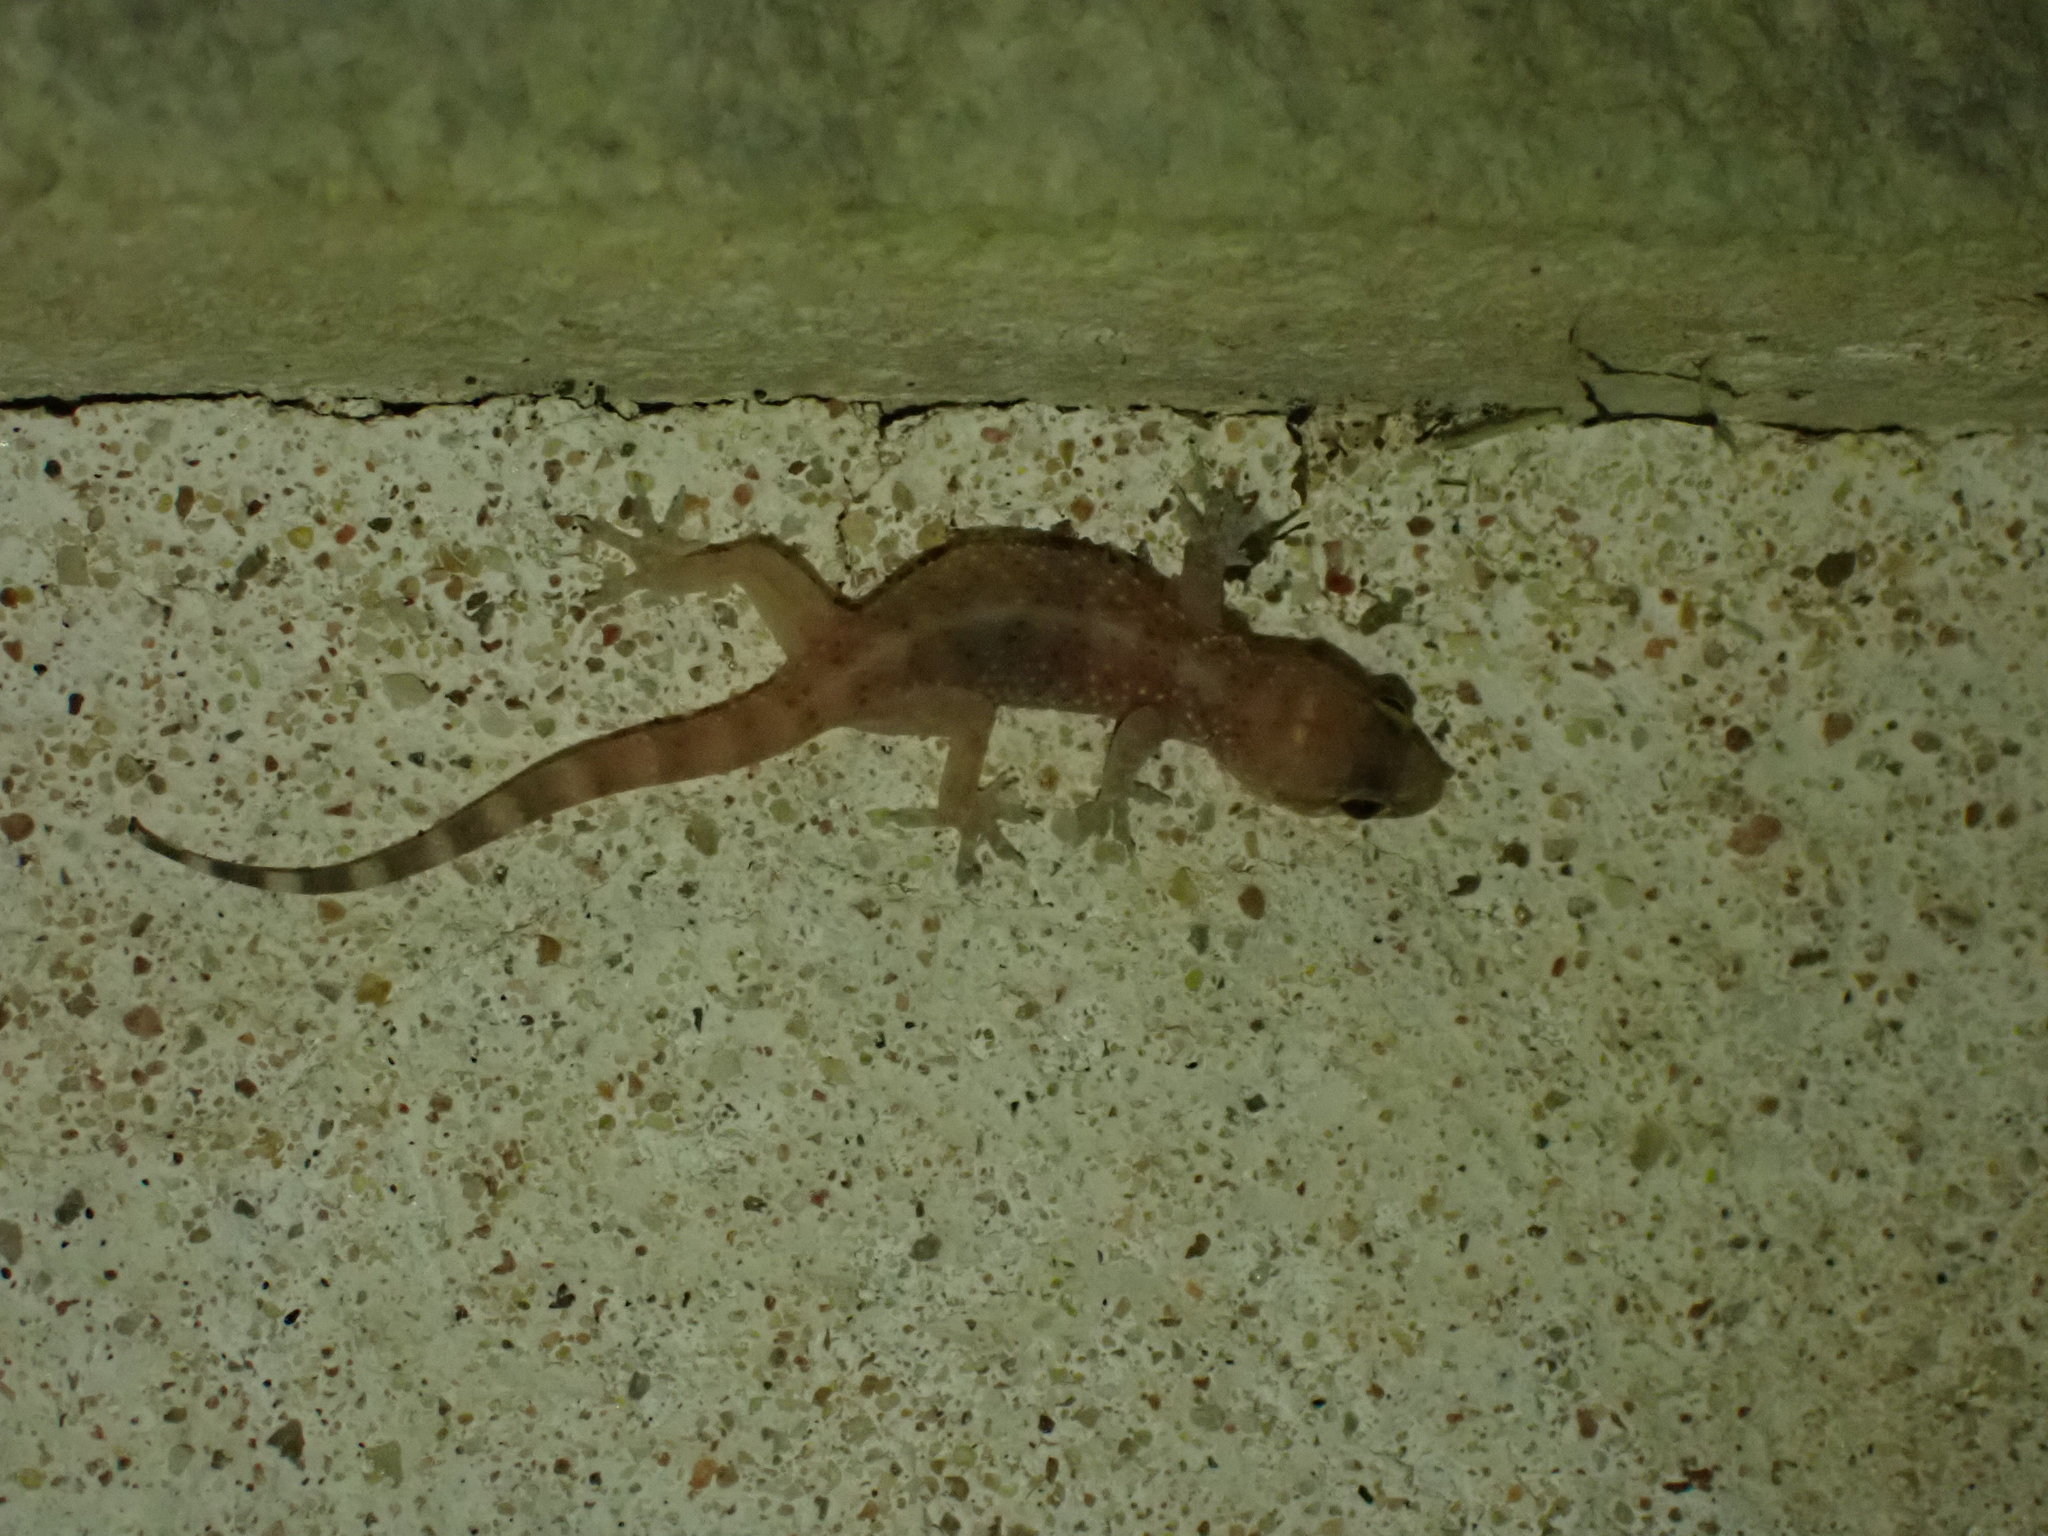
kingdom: Animalia
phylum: Chordata
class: Squamata
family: Gekkonidae
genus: Hemidactylus
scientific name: Hemidactylus turcicus
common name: Turkish gecko
